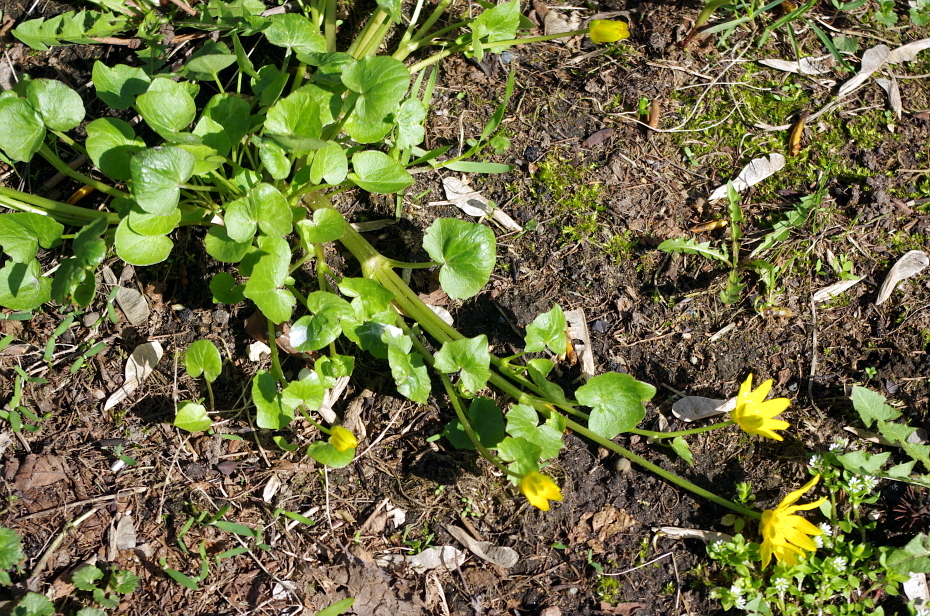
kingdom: Plantae
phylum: Tracheophyta
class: Magnoliopsida
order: Ranunculales
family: Ranunculaceae
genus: Ficaria
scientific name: Ficaria verna
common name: Lesser celandine
